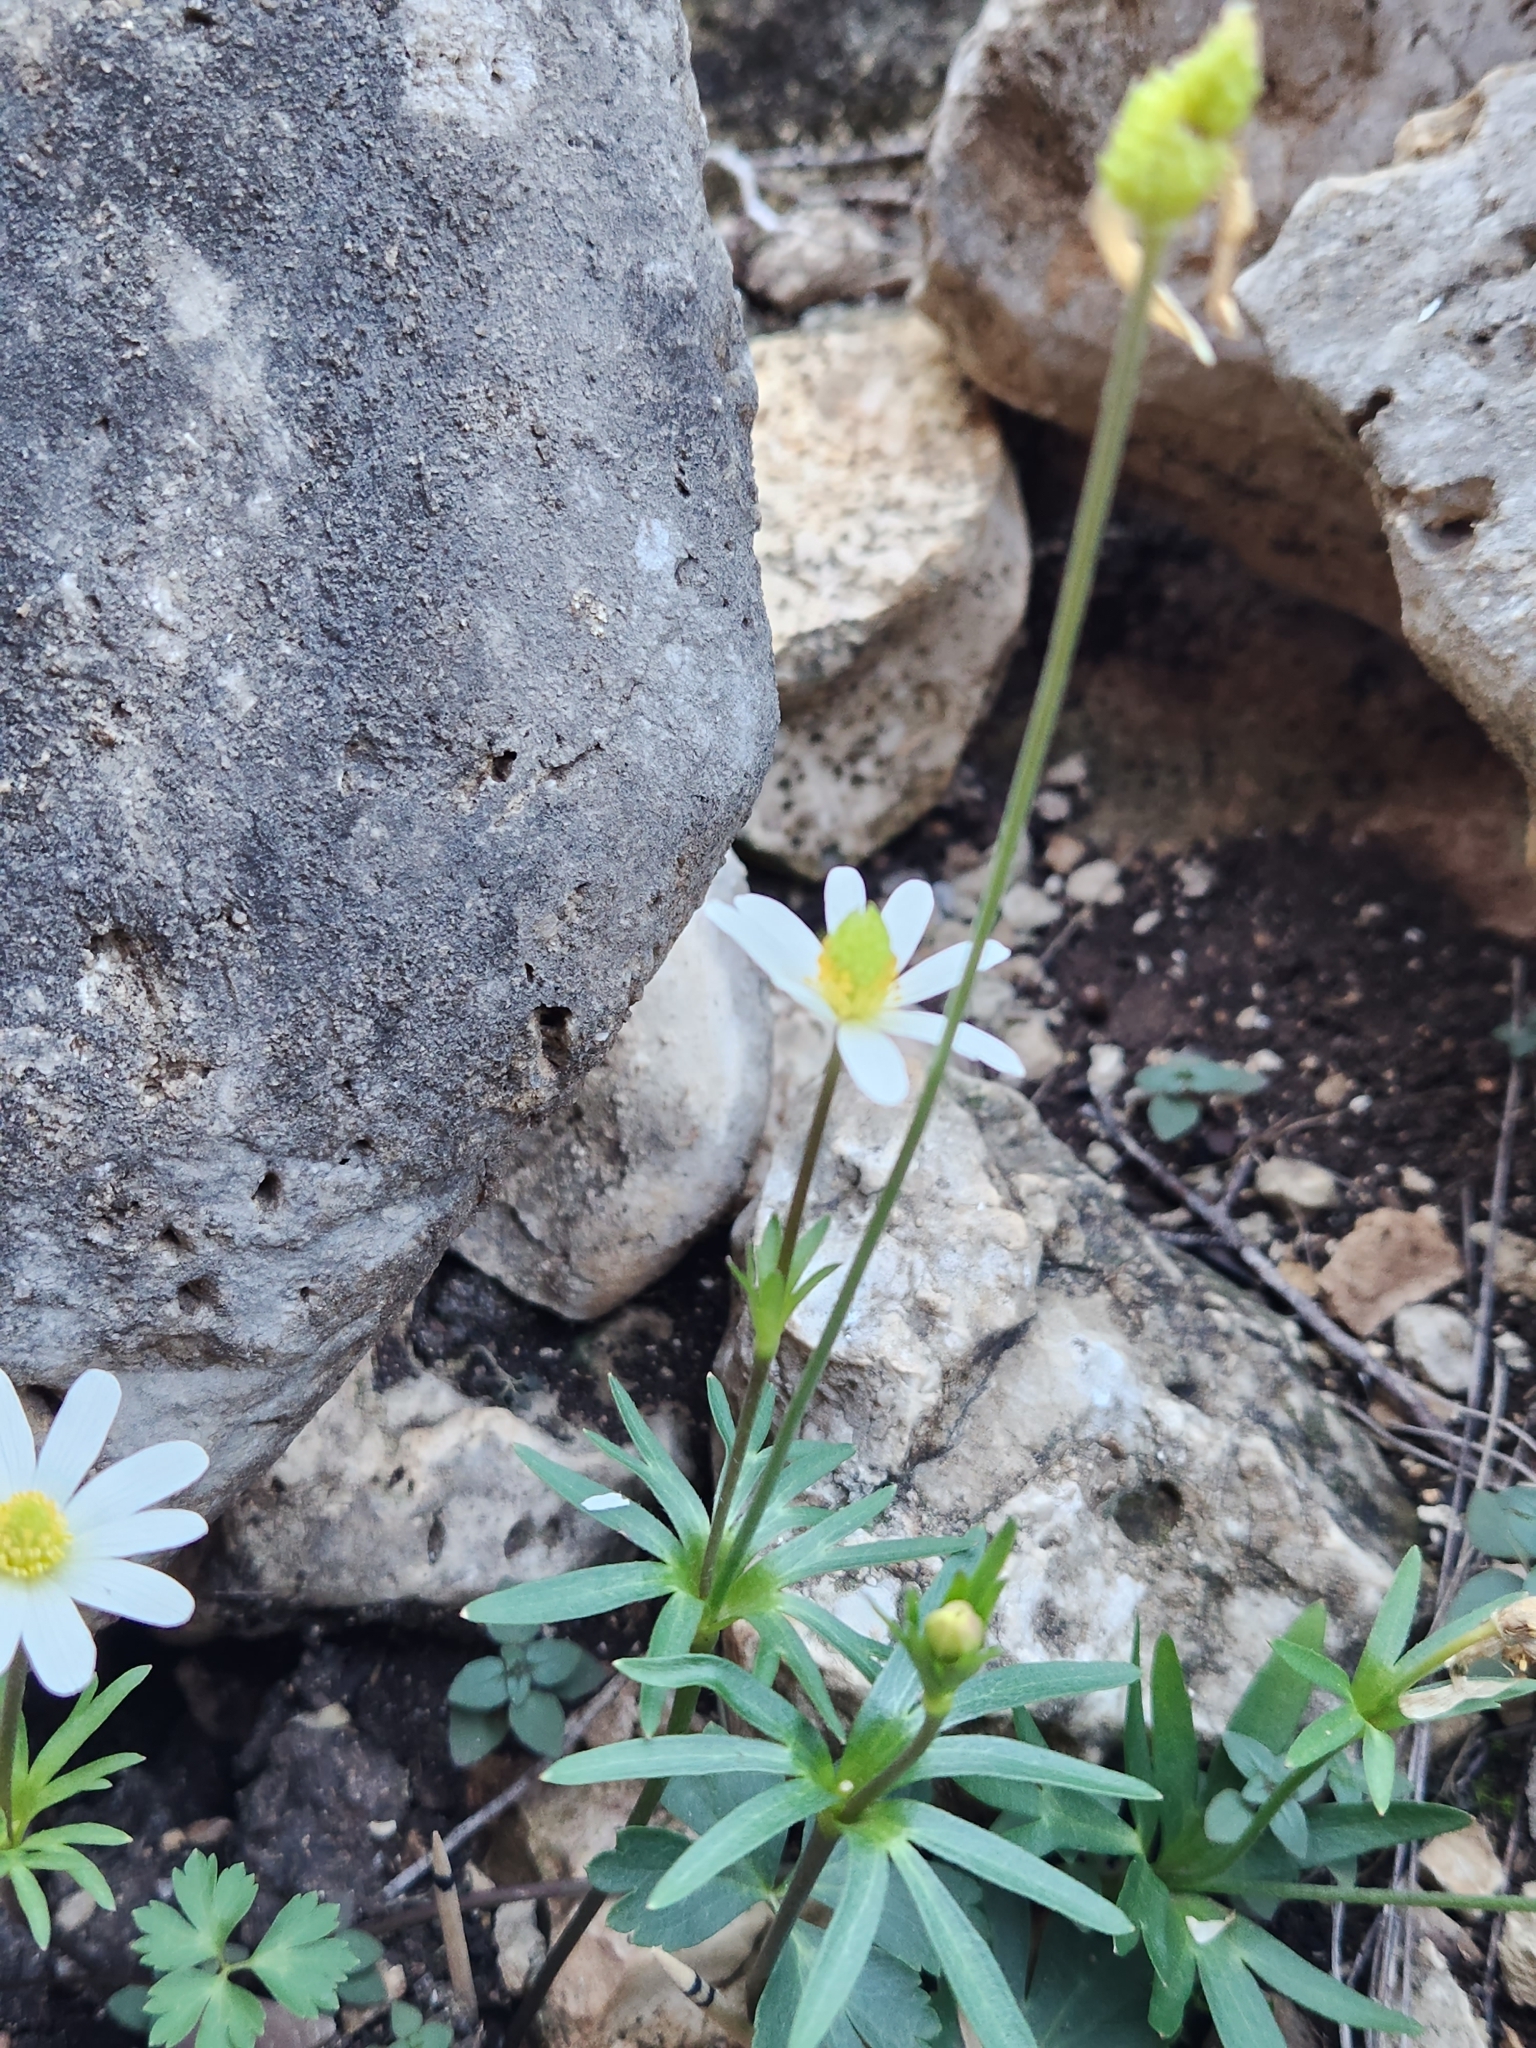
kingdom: Plantae
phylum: Tracheophyta
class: Magnoliopsida
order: Ranunculales
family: Ranunculaceae
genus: Anemone
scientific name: Anemone edwardsiana
